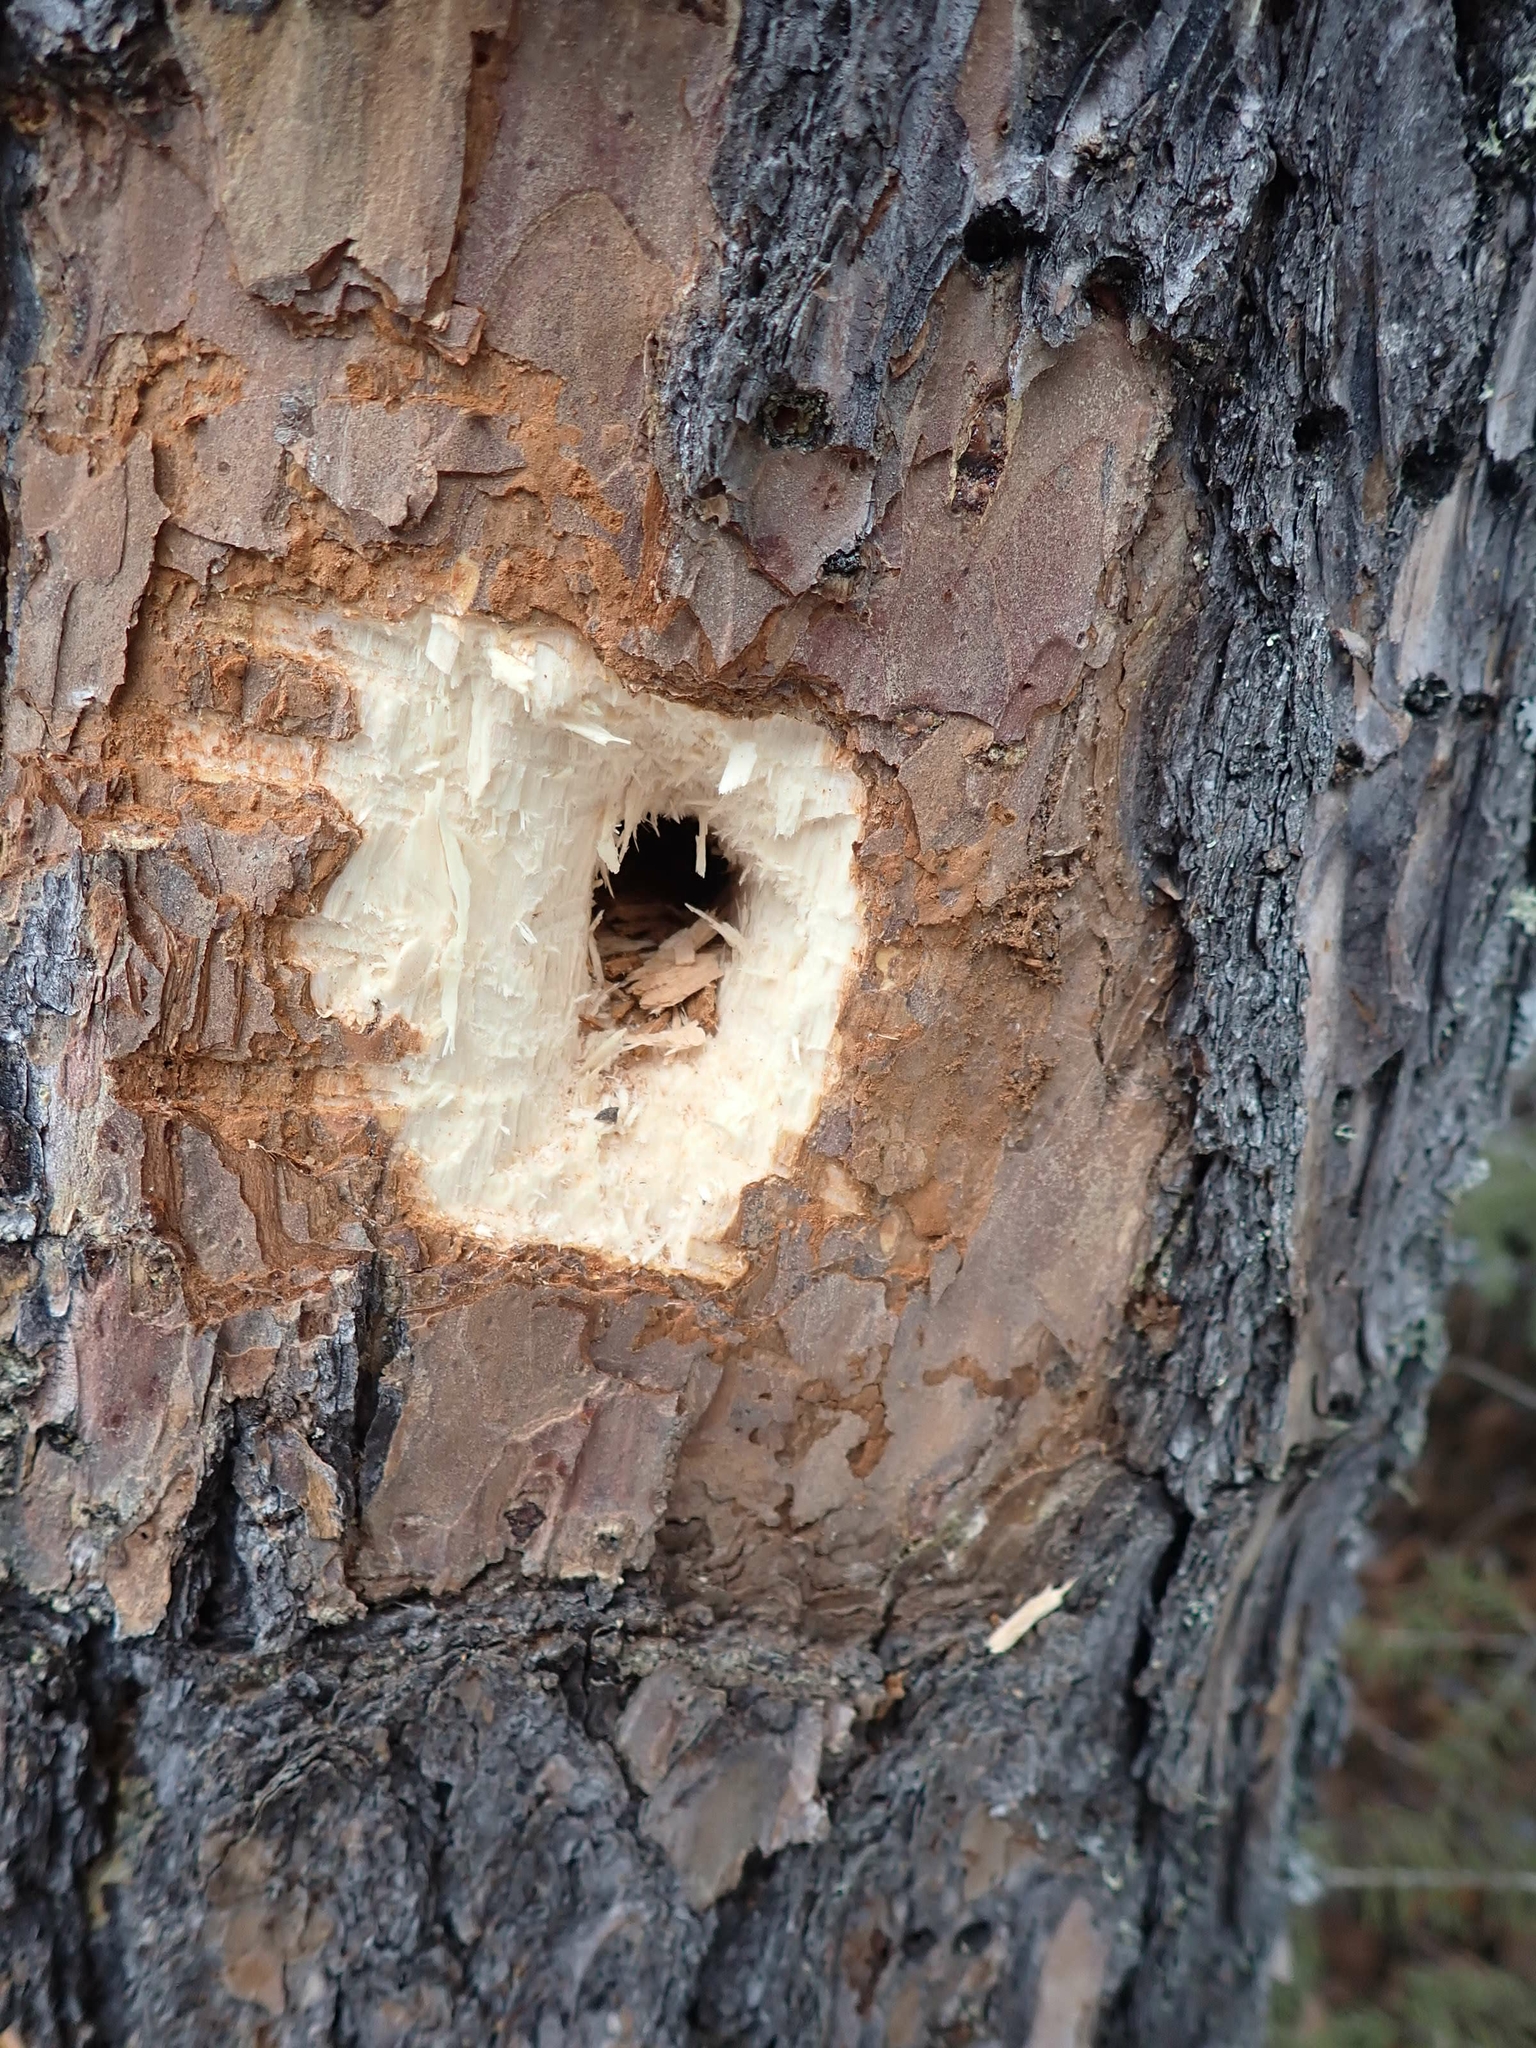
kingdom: Animalia
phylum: Chordata
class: Aves
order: Piciformes
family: Picidae
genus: Dryocopus
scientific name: Dryocopus pileatus
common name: Pileated woodpecker
